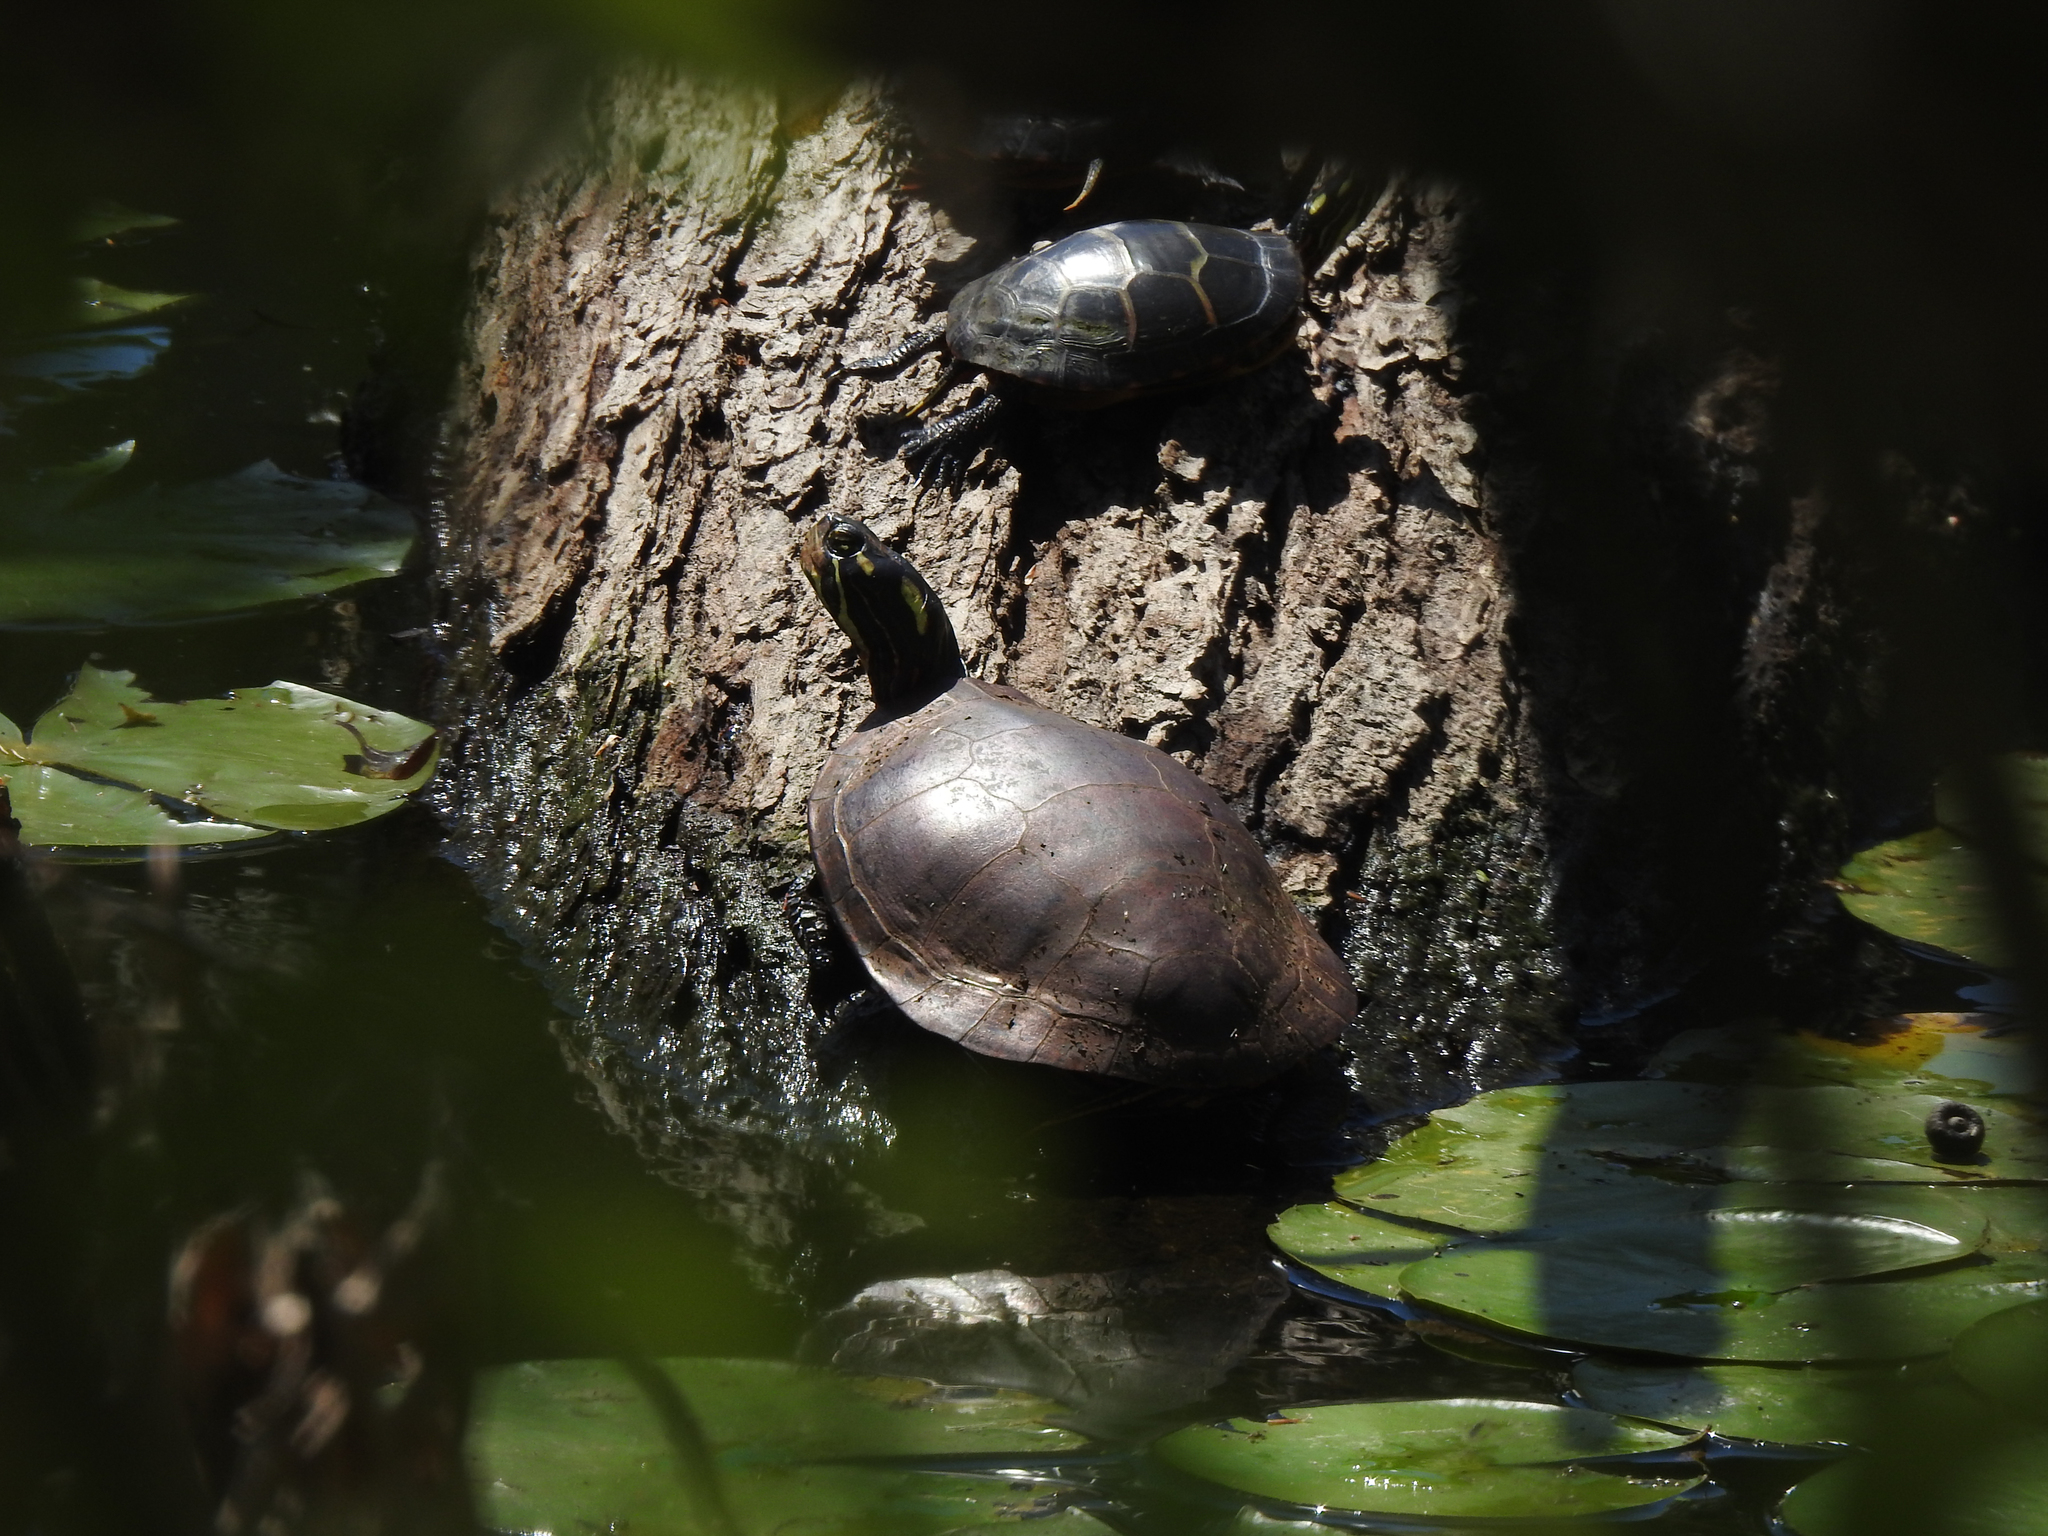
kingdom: Animalia
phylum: Chordata
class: Testudines
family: Emydidae
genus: Chrysemys
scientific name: Chrysemys picta
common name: Painted turtle
